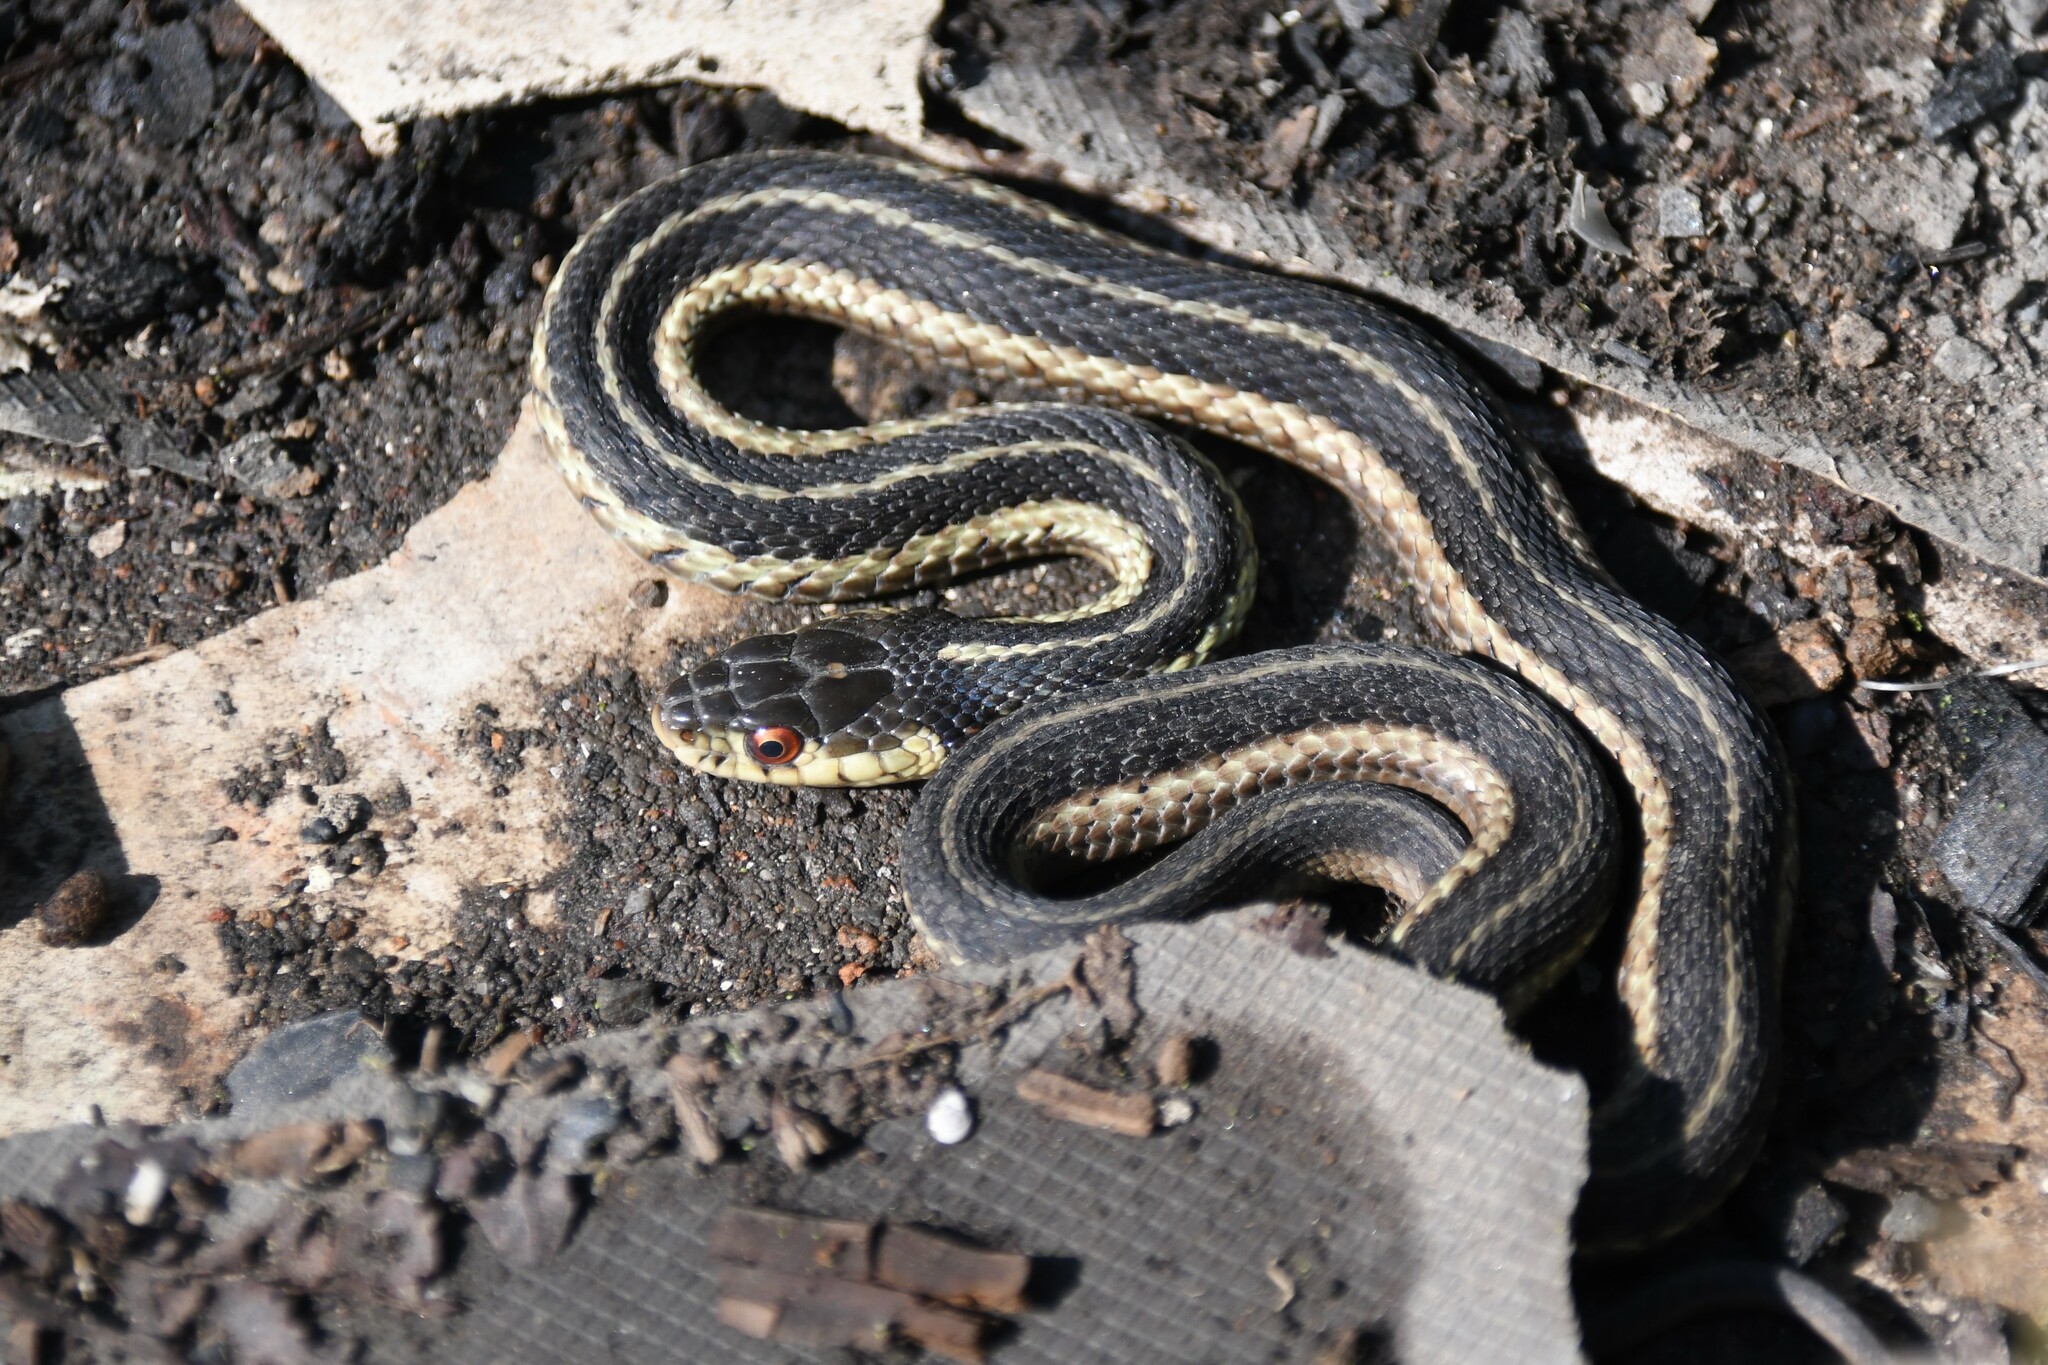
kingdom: Animalia
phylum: Chordata
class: Squamata
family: Colubridae
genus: Thamnophis
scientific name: Thamnophis sirtalis
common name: Common garter snake
